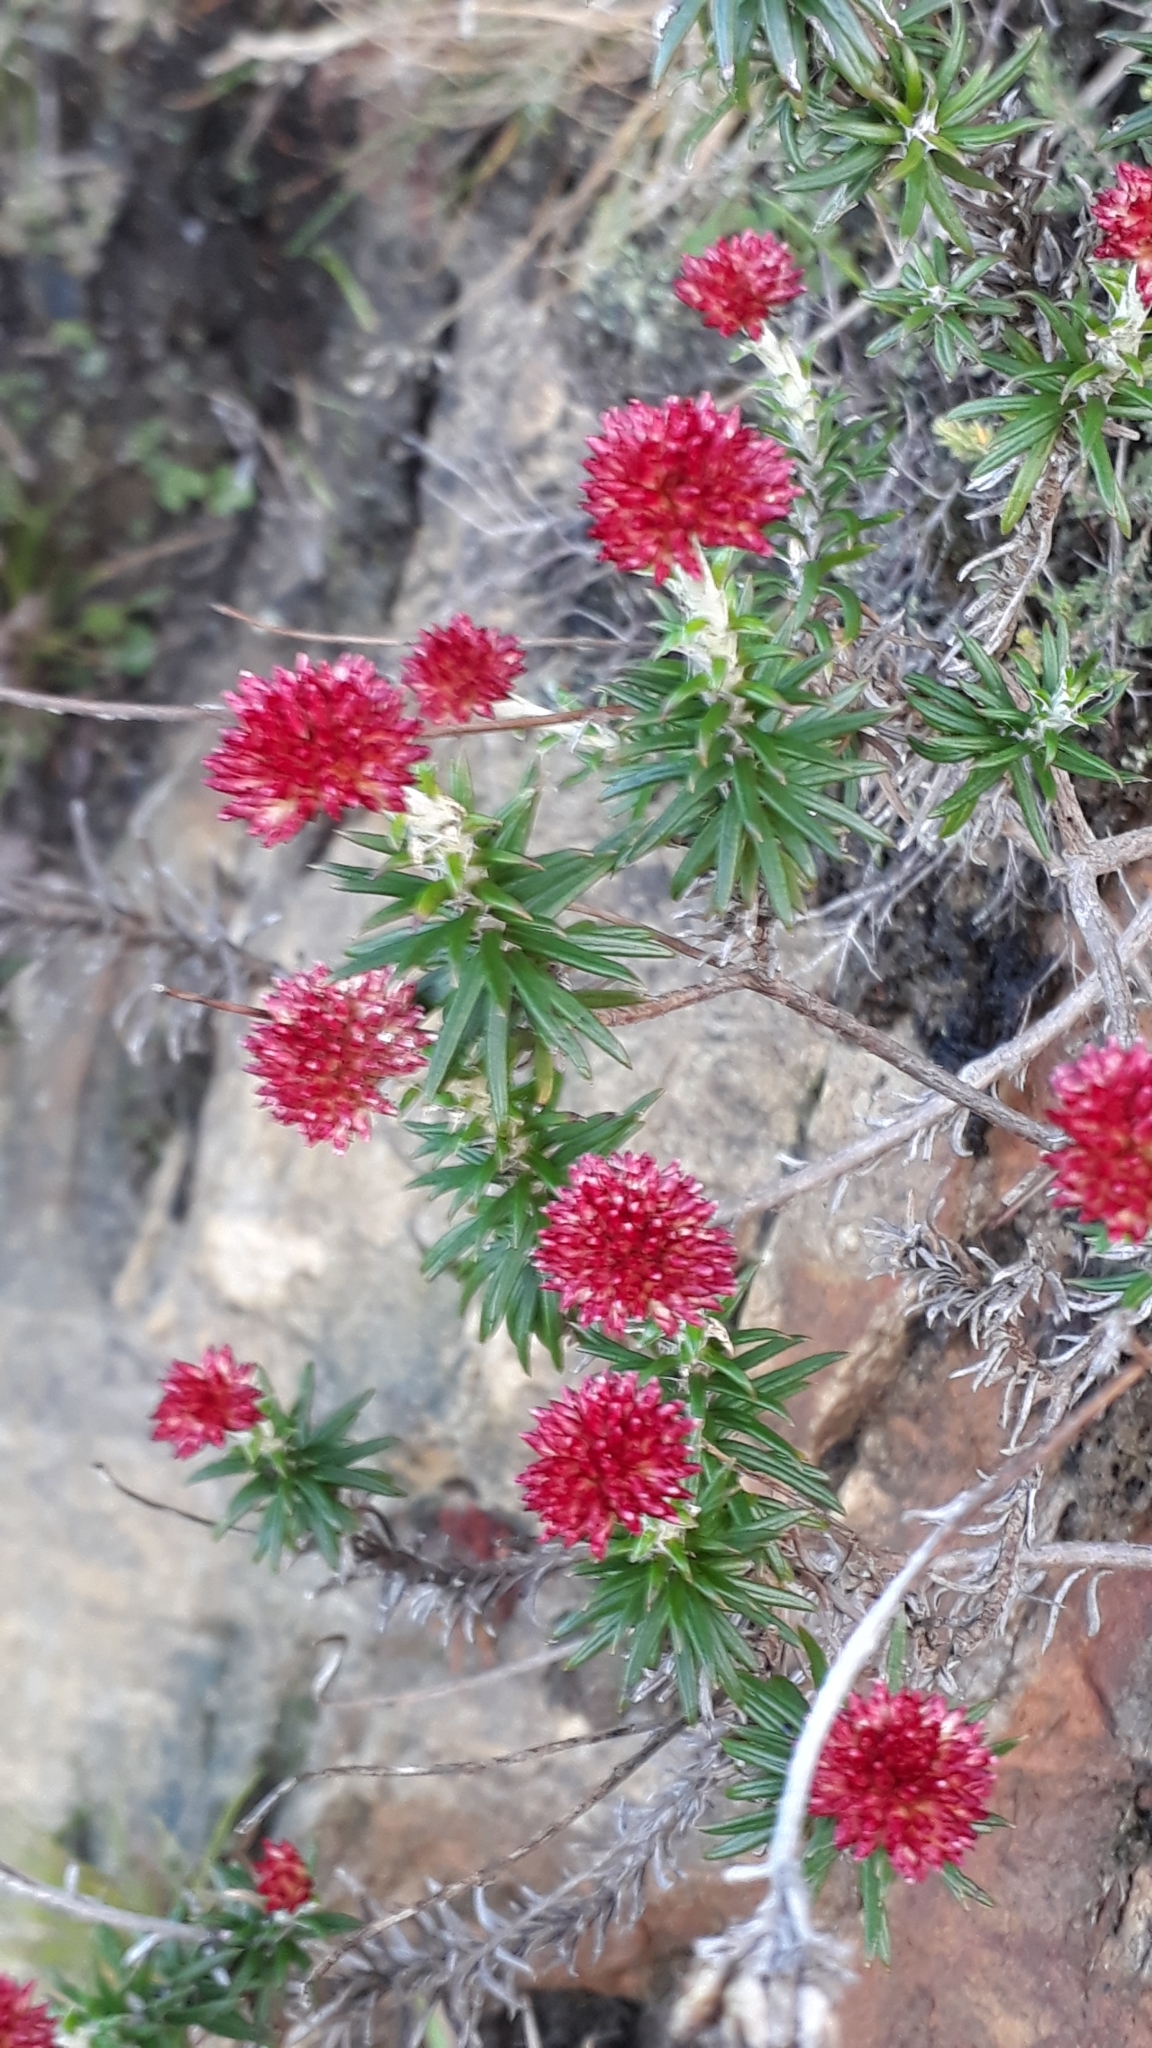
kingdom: Plantae
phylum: Tracheophyta
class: Magnoliopsida
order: Asterales
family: Asteraceae
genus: Anaxeton
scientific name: Anaxeton arborescens
